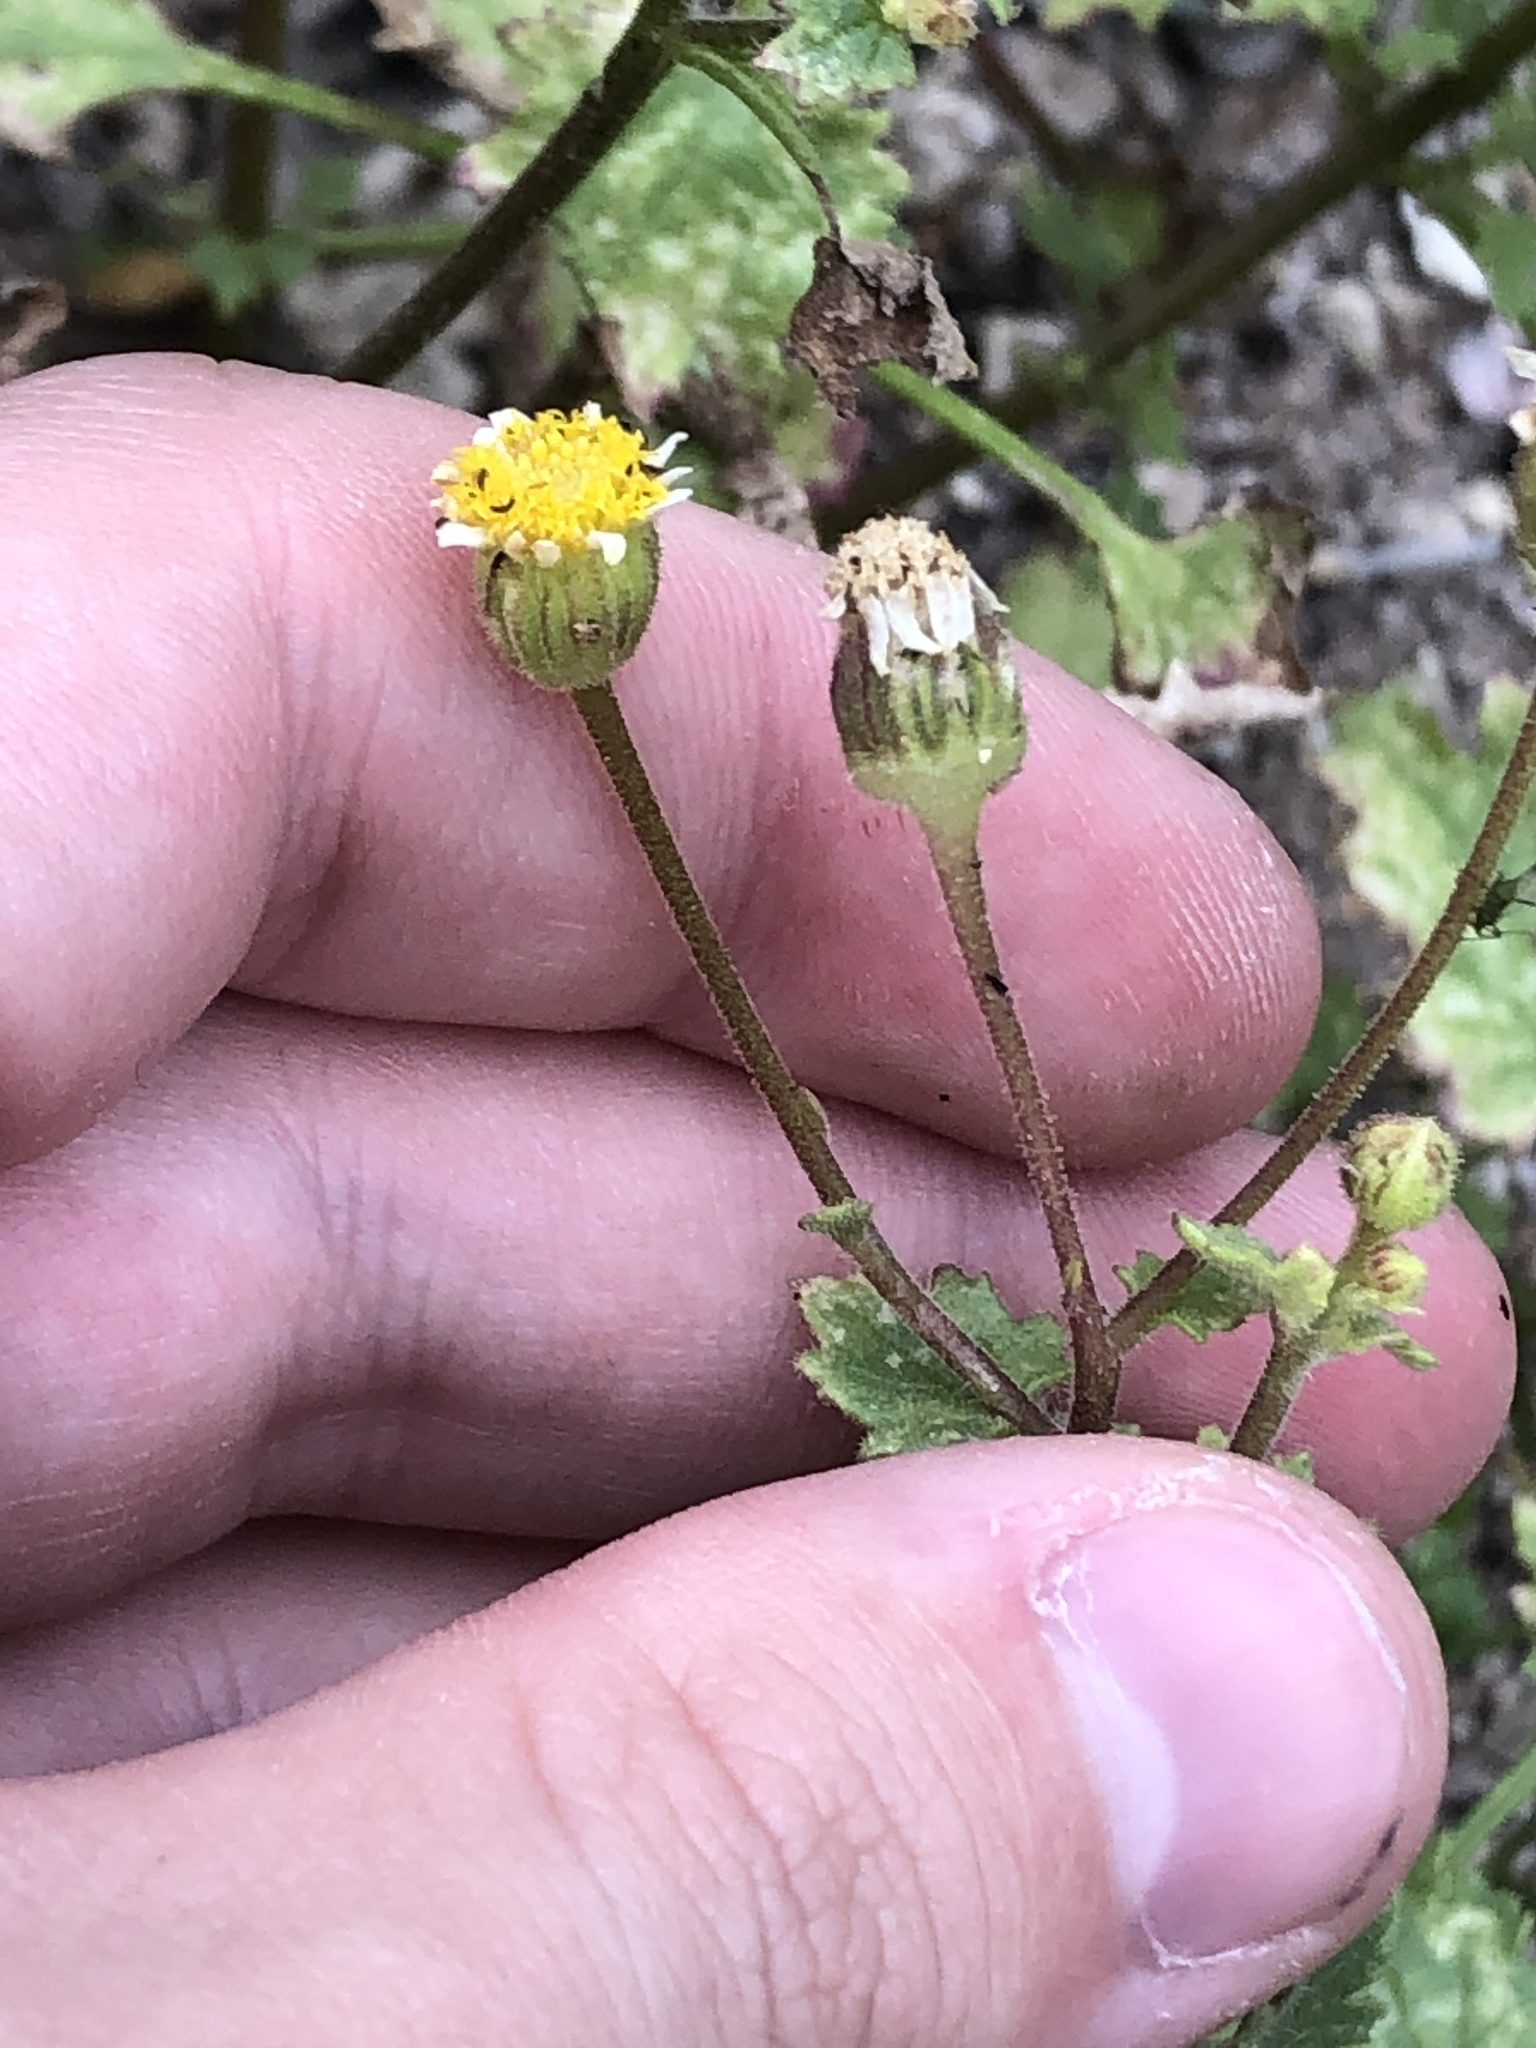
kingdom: Plantae
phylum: Tracheophyta
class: Magnoliopsida
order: Asterales
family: Asteraceae
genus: Laphamia
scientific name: Laphamia emoryi
